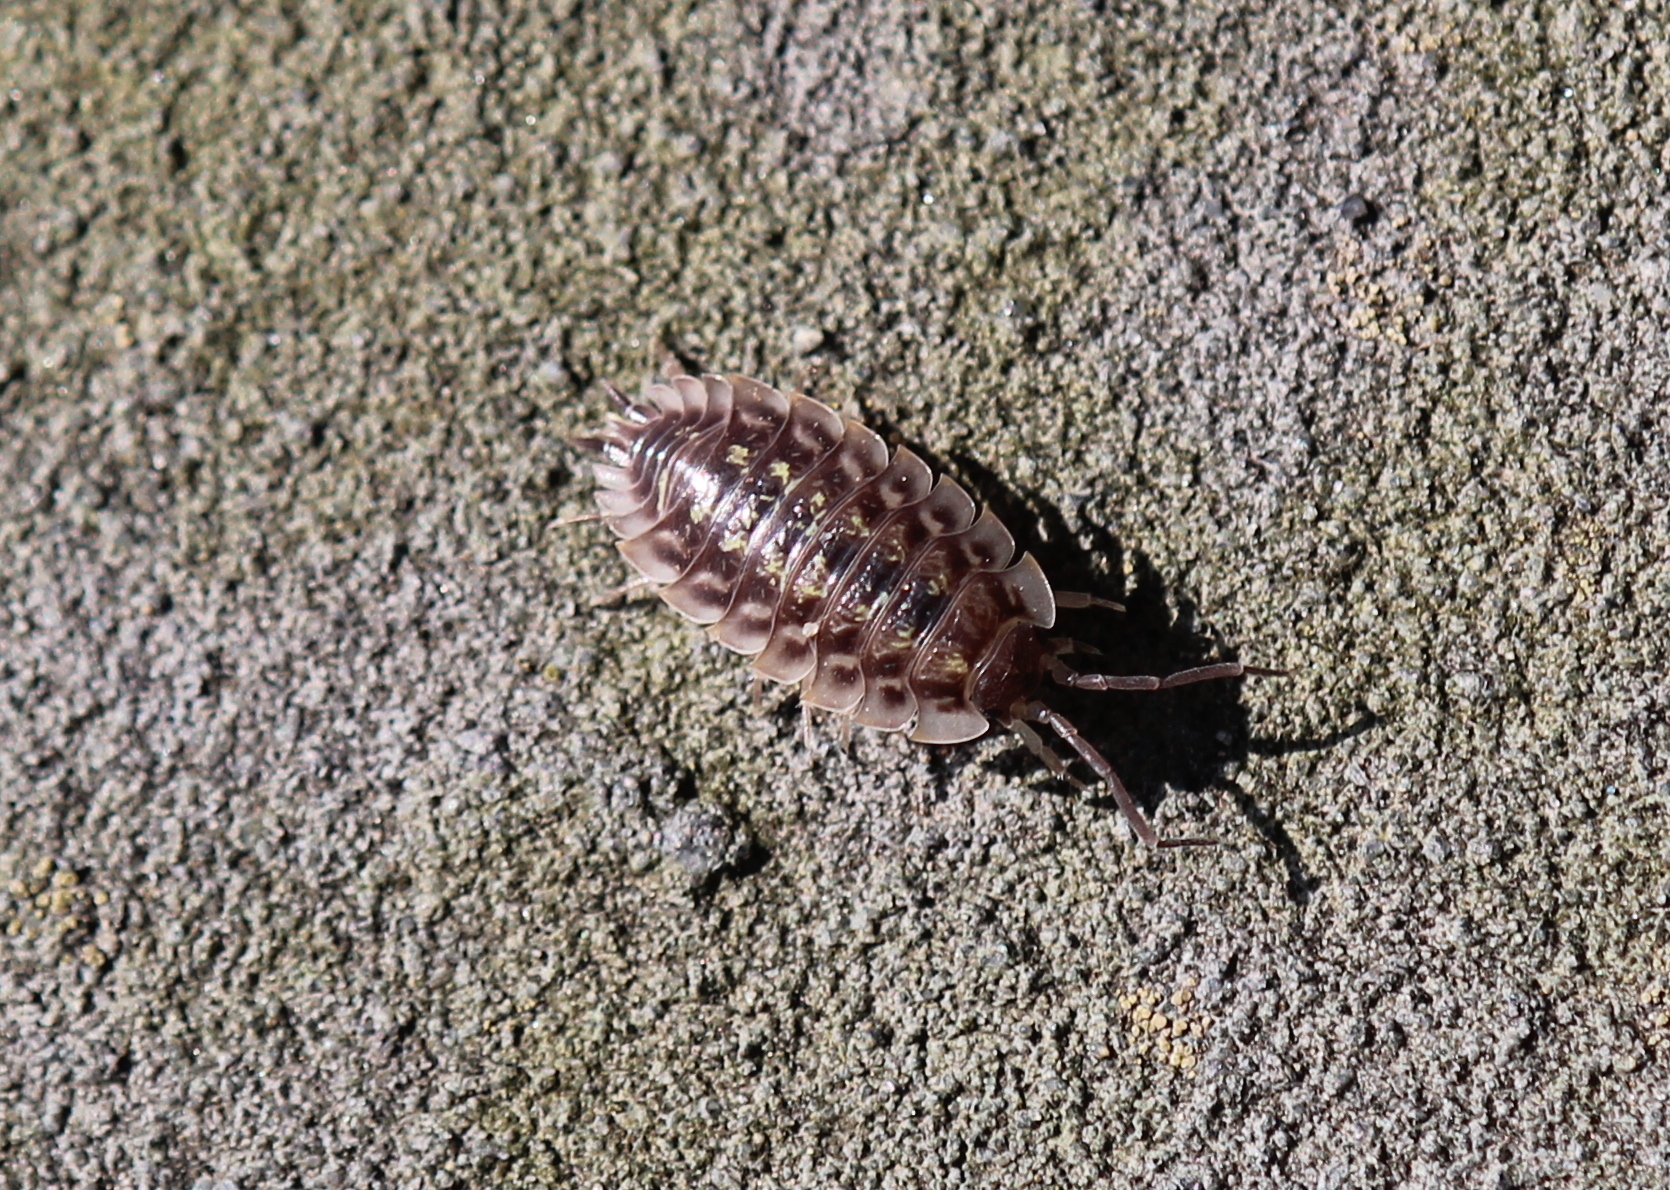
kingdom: Animalia
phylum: Arthropoda
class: Malacostraca
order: Isopoda
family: Oniscidae
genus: Oniscus
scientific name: Oniscus asellus
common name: Common shiny woodlouse
